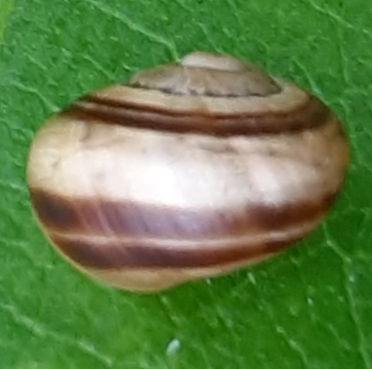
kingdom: Animalia
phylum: Mollusca
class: Gastropoda
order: Stylommatophora
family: Helicidae
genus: Cepaea
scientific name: Cepaea
